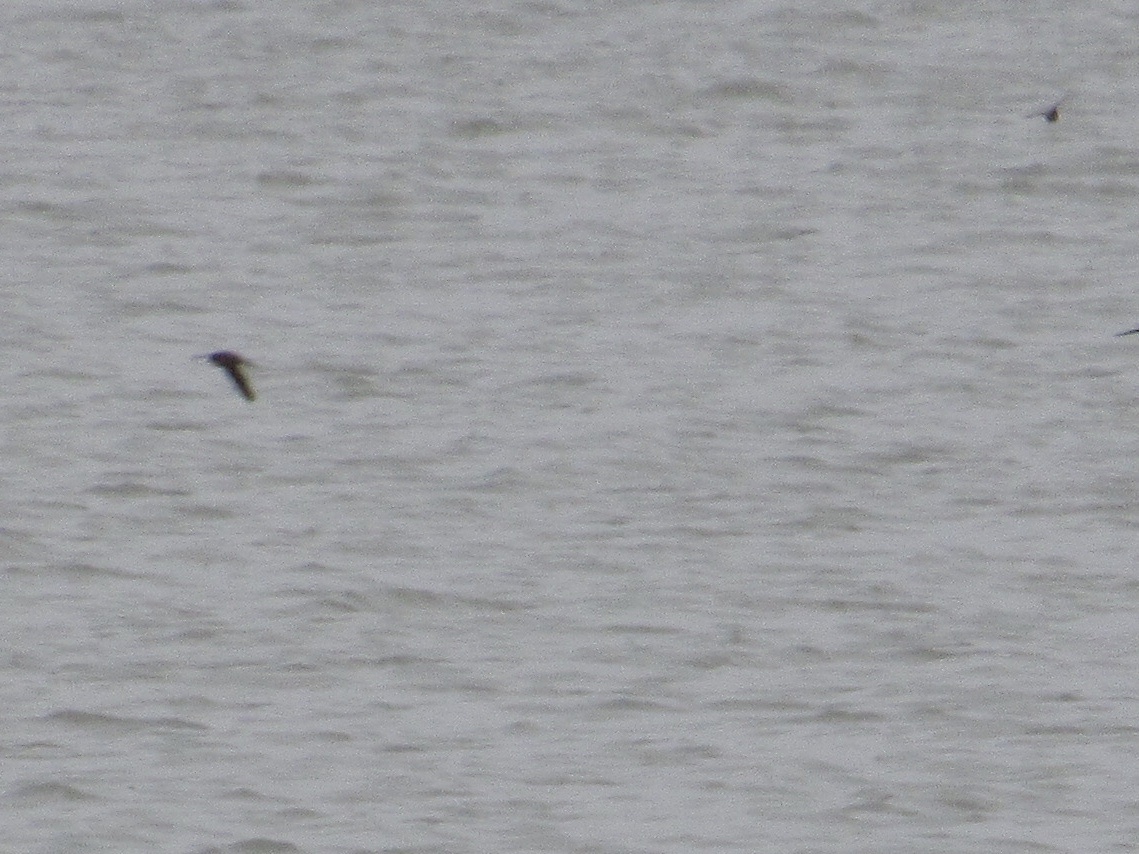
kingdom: Animalia
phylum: Chordata
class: Aves
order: Passeriformes
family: Hirundinidae
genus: Hirundo
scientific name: Hirundo rustica
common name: Barn swallow
